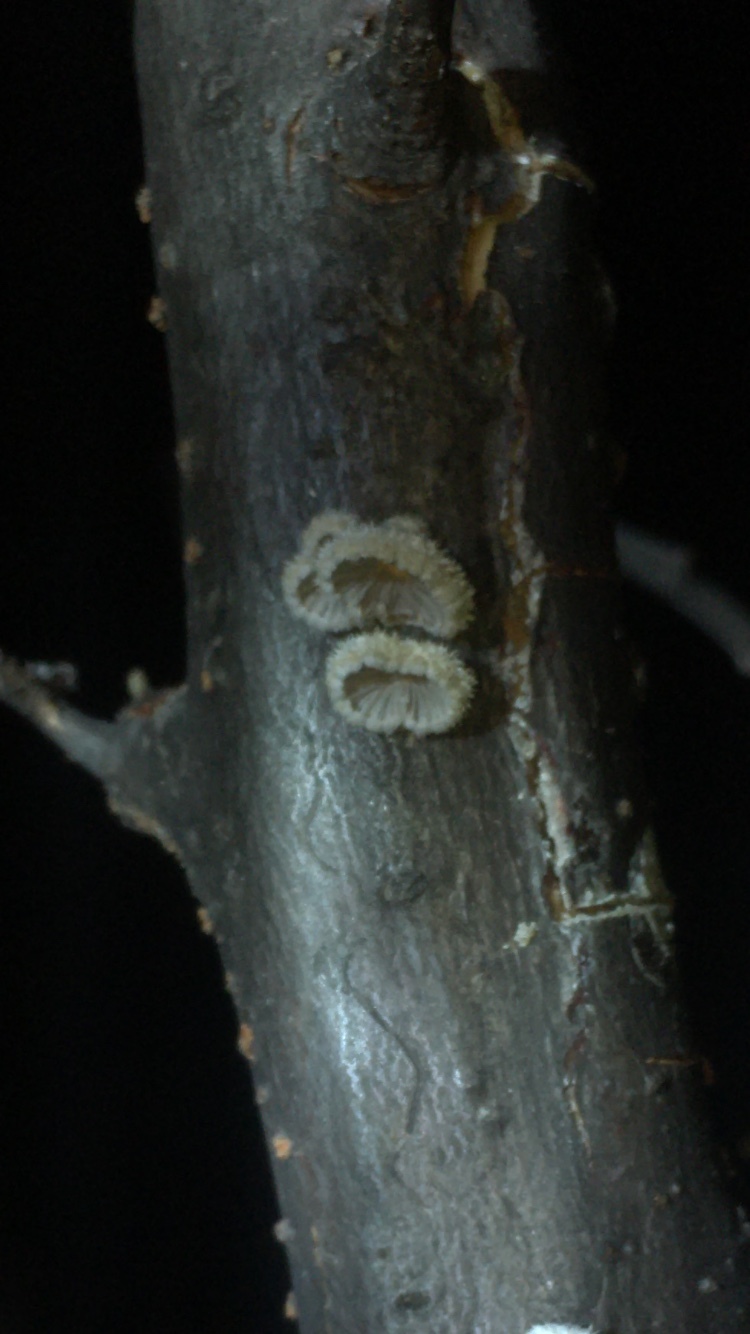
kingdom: Fungi
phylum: Basidiomycota
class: Agaricomycetes
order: Agaricales
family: Schizophyllaceae
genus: Schizophyllum
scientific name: Schizophyllum commune
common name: Common porecrust
